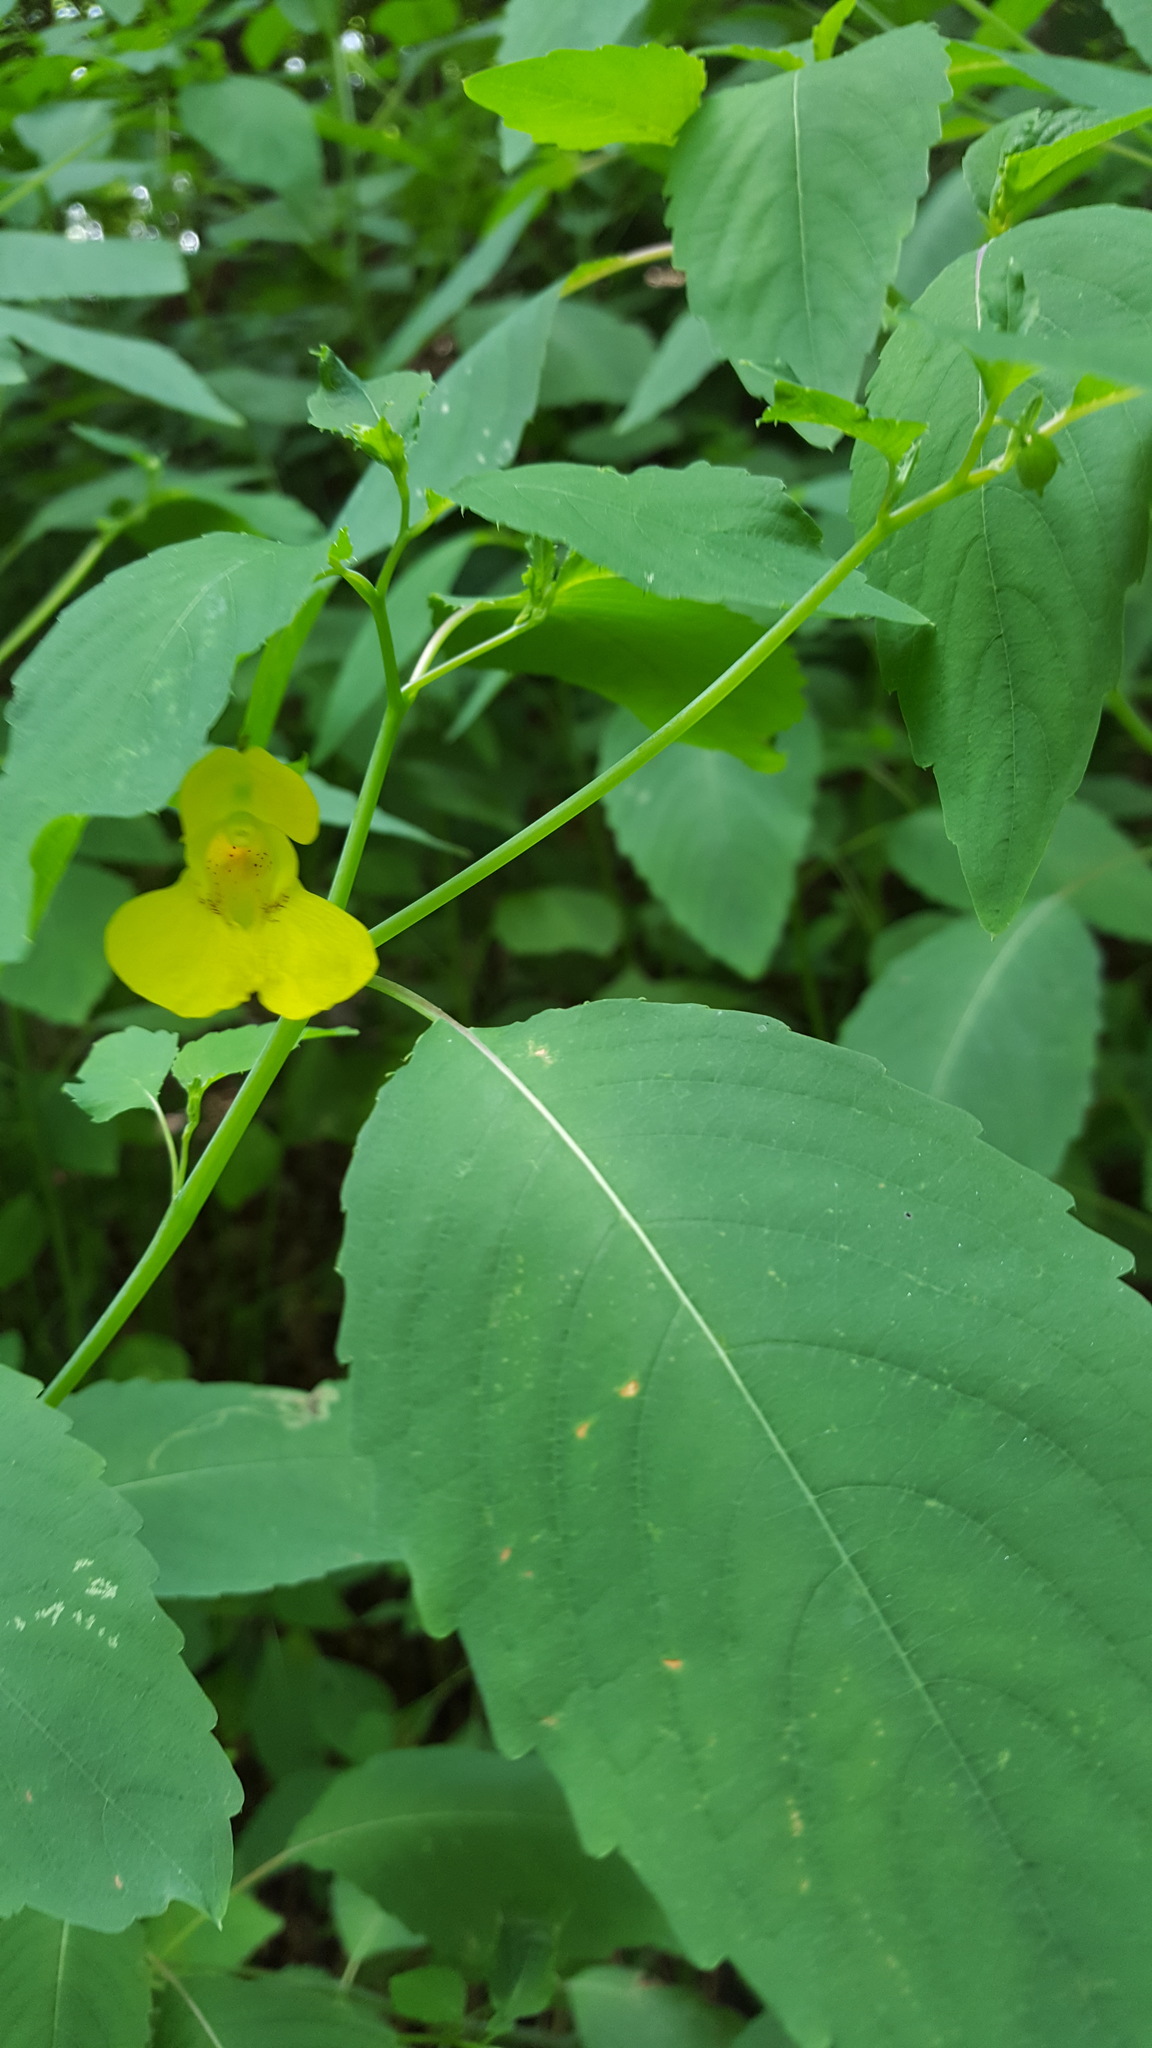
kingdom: Plantae
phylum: Tracheophyta
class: Magnoliopsida
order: Ericales
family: Balsaminaceae
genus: Impatiens
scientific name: Impatiens pallida
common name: Pale snapweed
